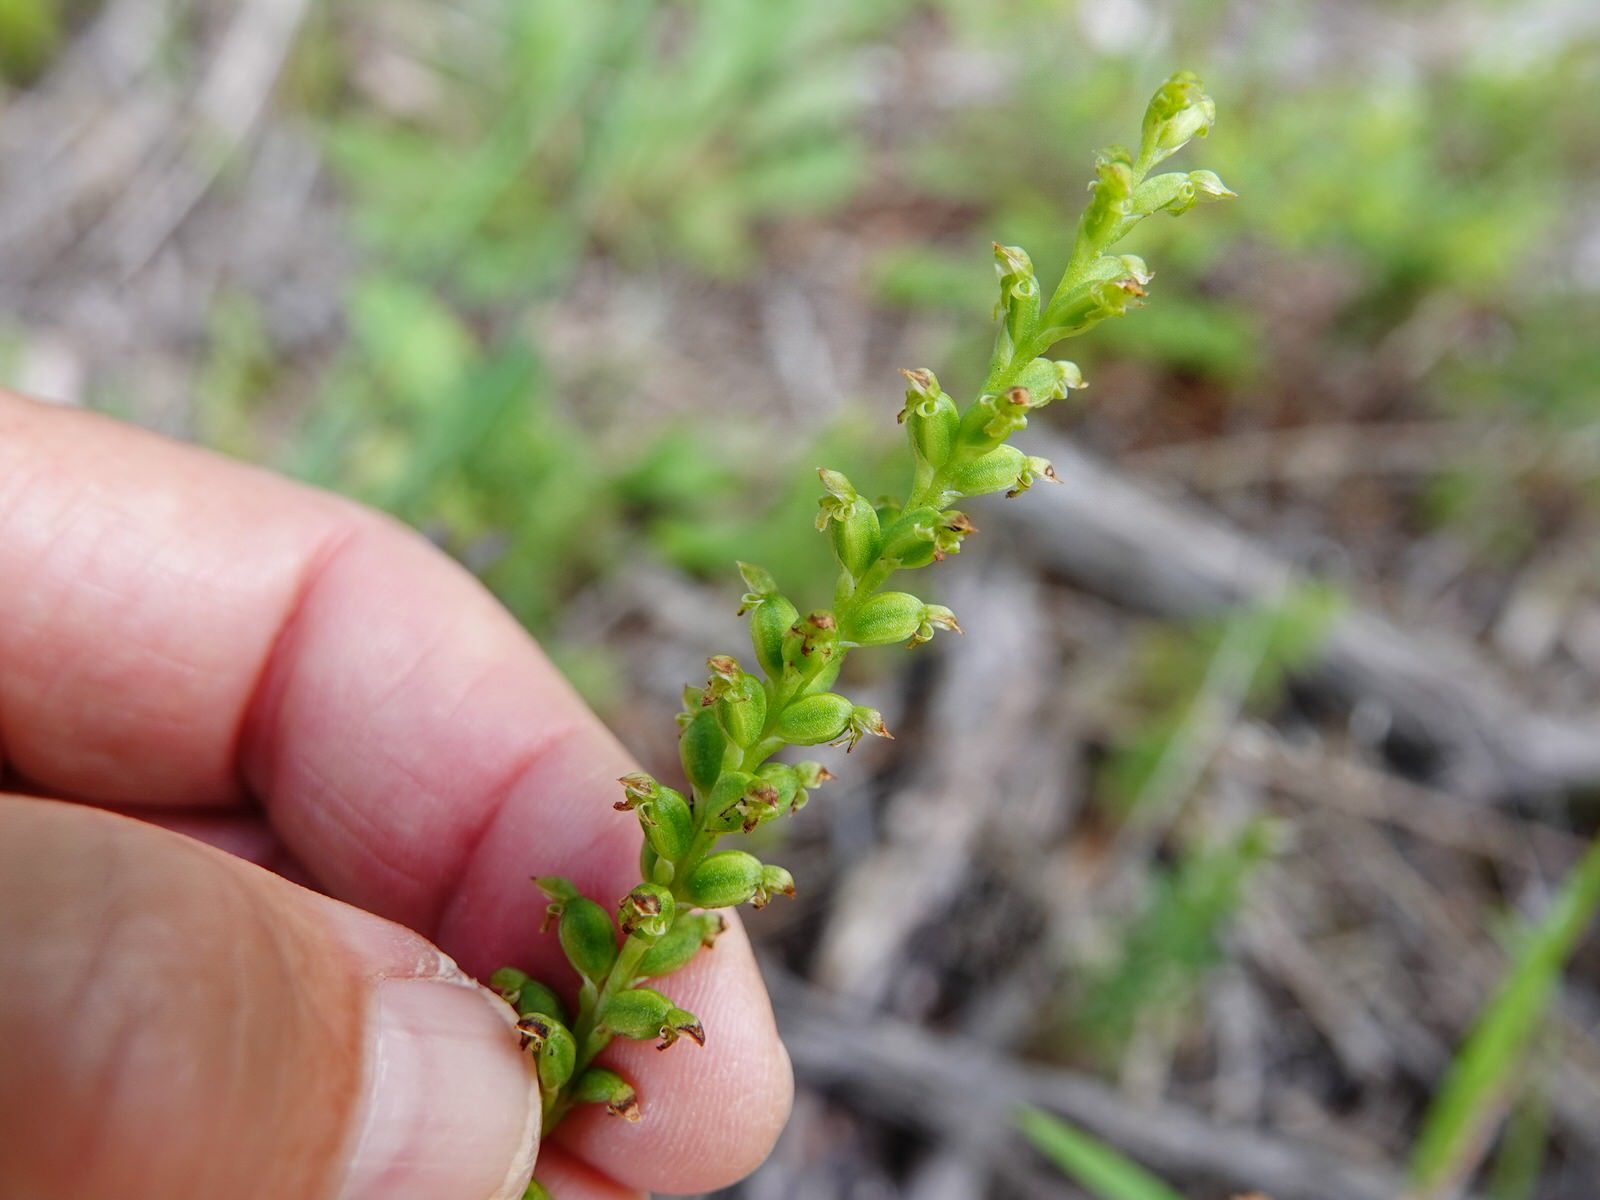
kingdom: Plantae
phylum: Tracheophyta
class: Liliopsida
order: Asparagales
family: Orchidaceae
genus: Microtis
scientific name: Microtis unifolia
